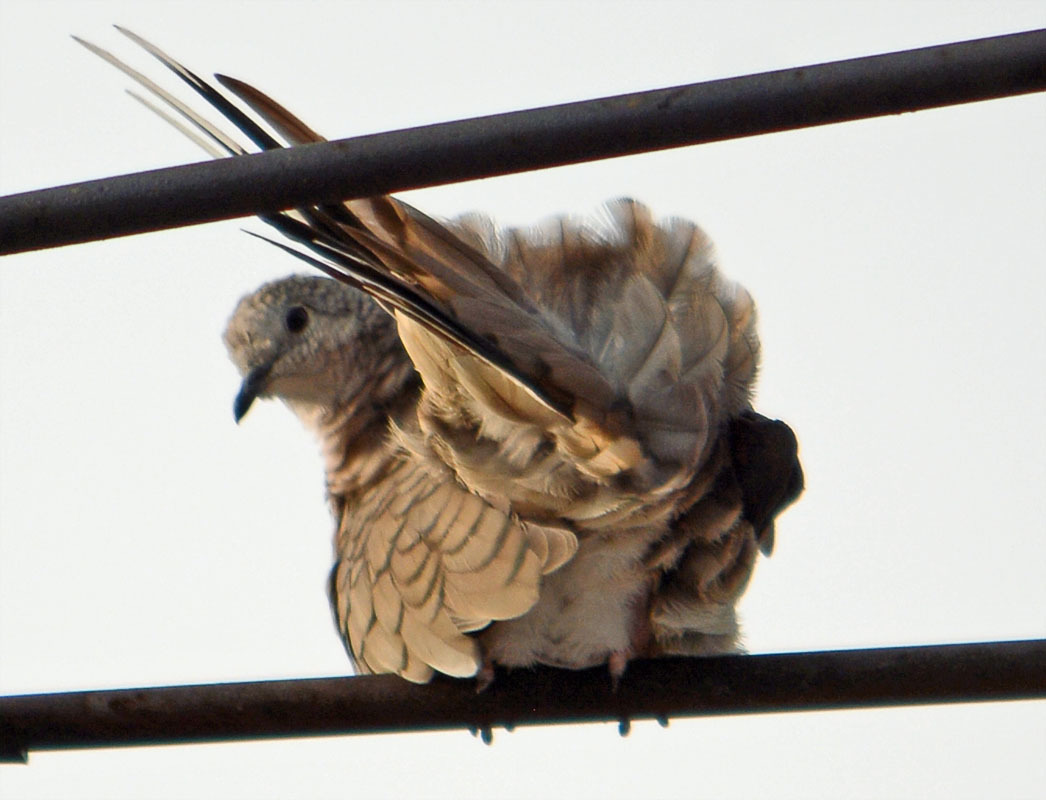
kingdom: Animalia
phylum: Chordata
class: Aves
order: Columbiformes
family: Columbidae
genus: Columbina
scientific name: Columbina inca
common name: Inca dove
